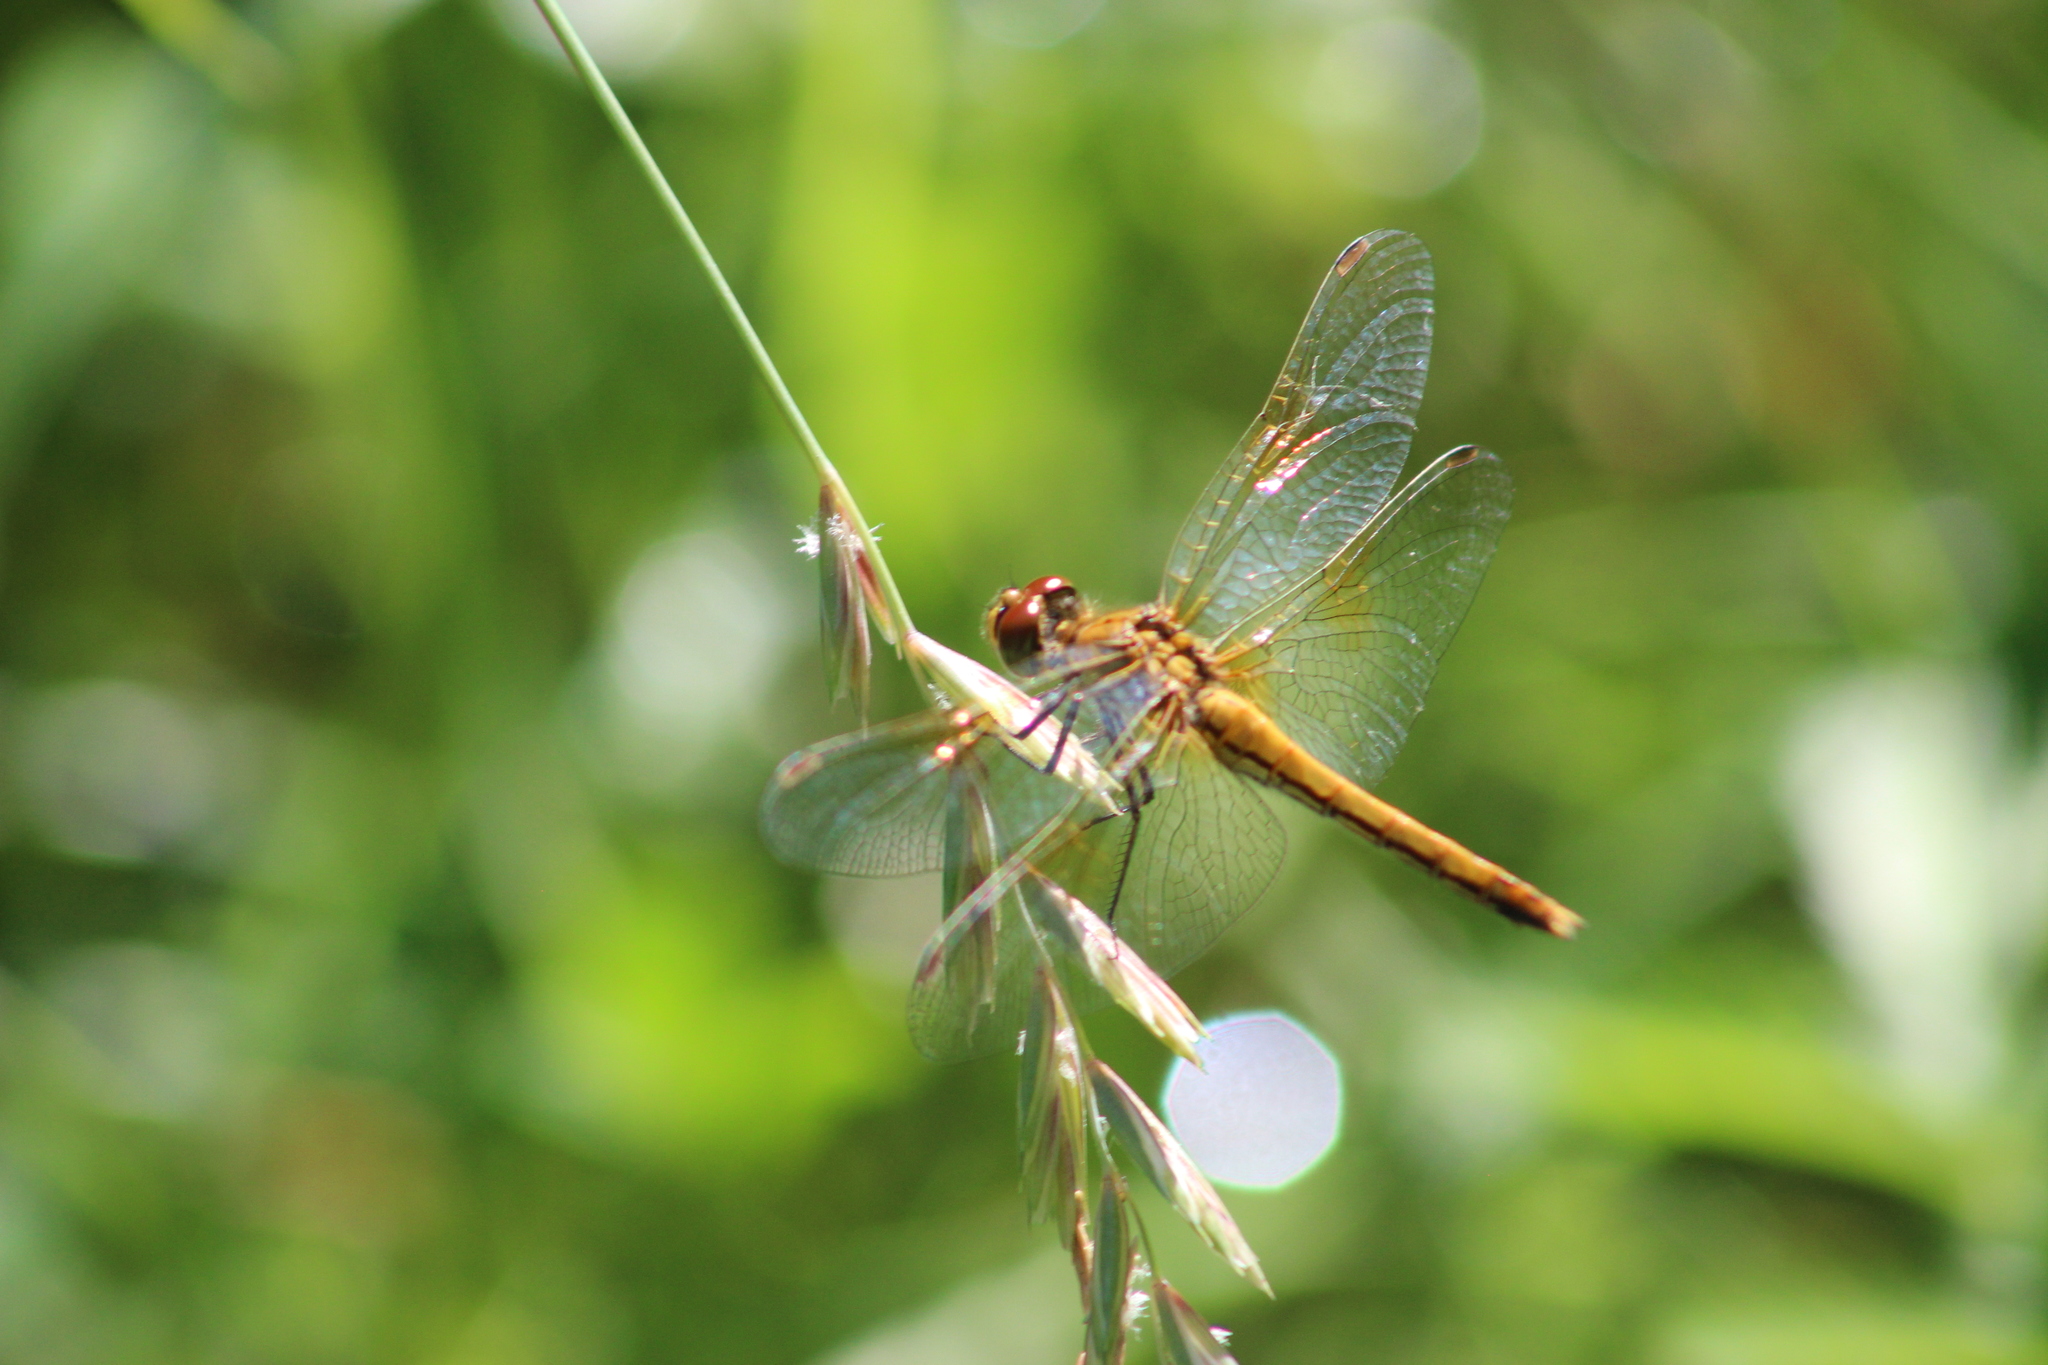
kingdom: Animalia
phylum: Arthropoda
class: Insecta
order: Odonata
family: Libellulidae
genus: Sympetrum
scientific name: Sympetrum flaveolum
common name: Yellow-winged darter
